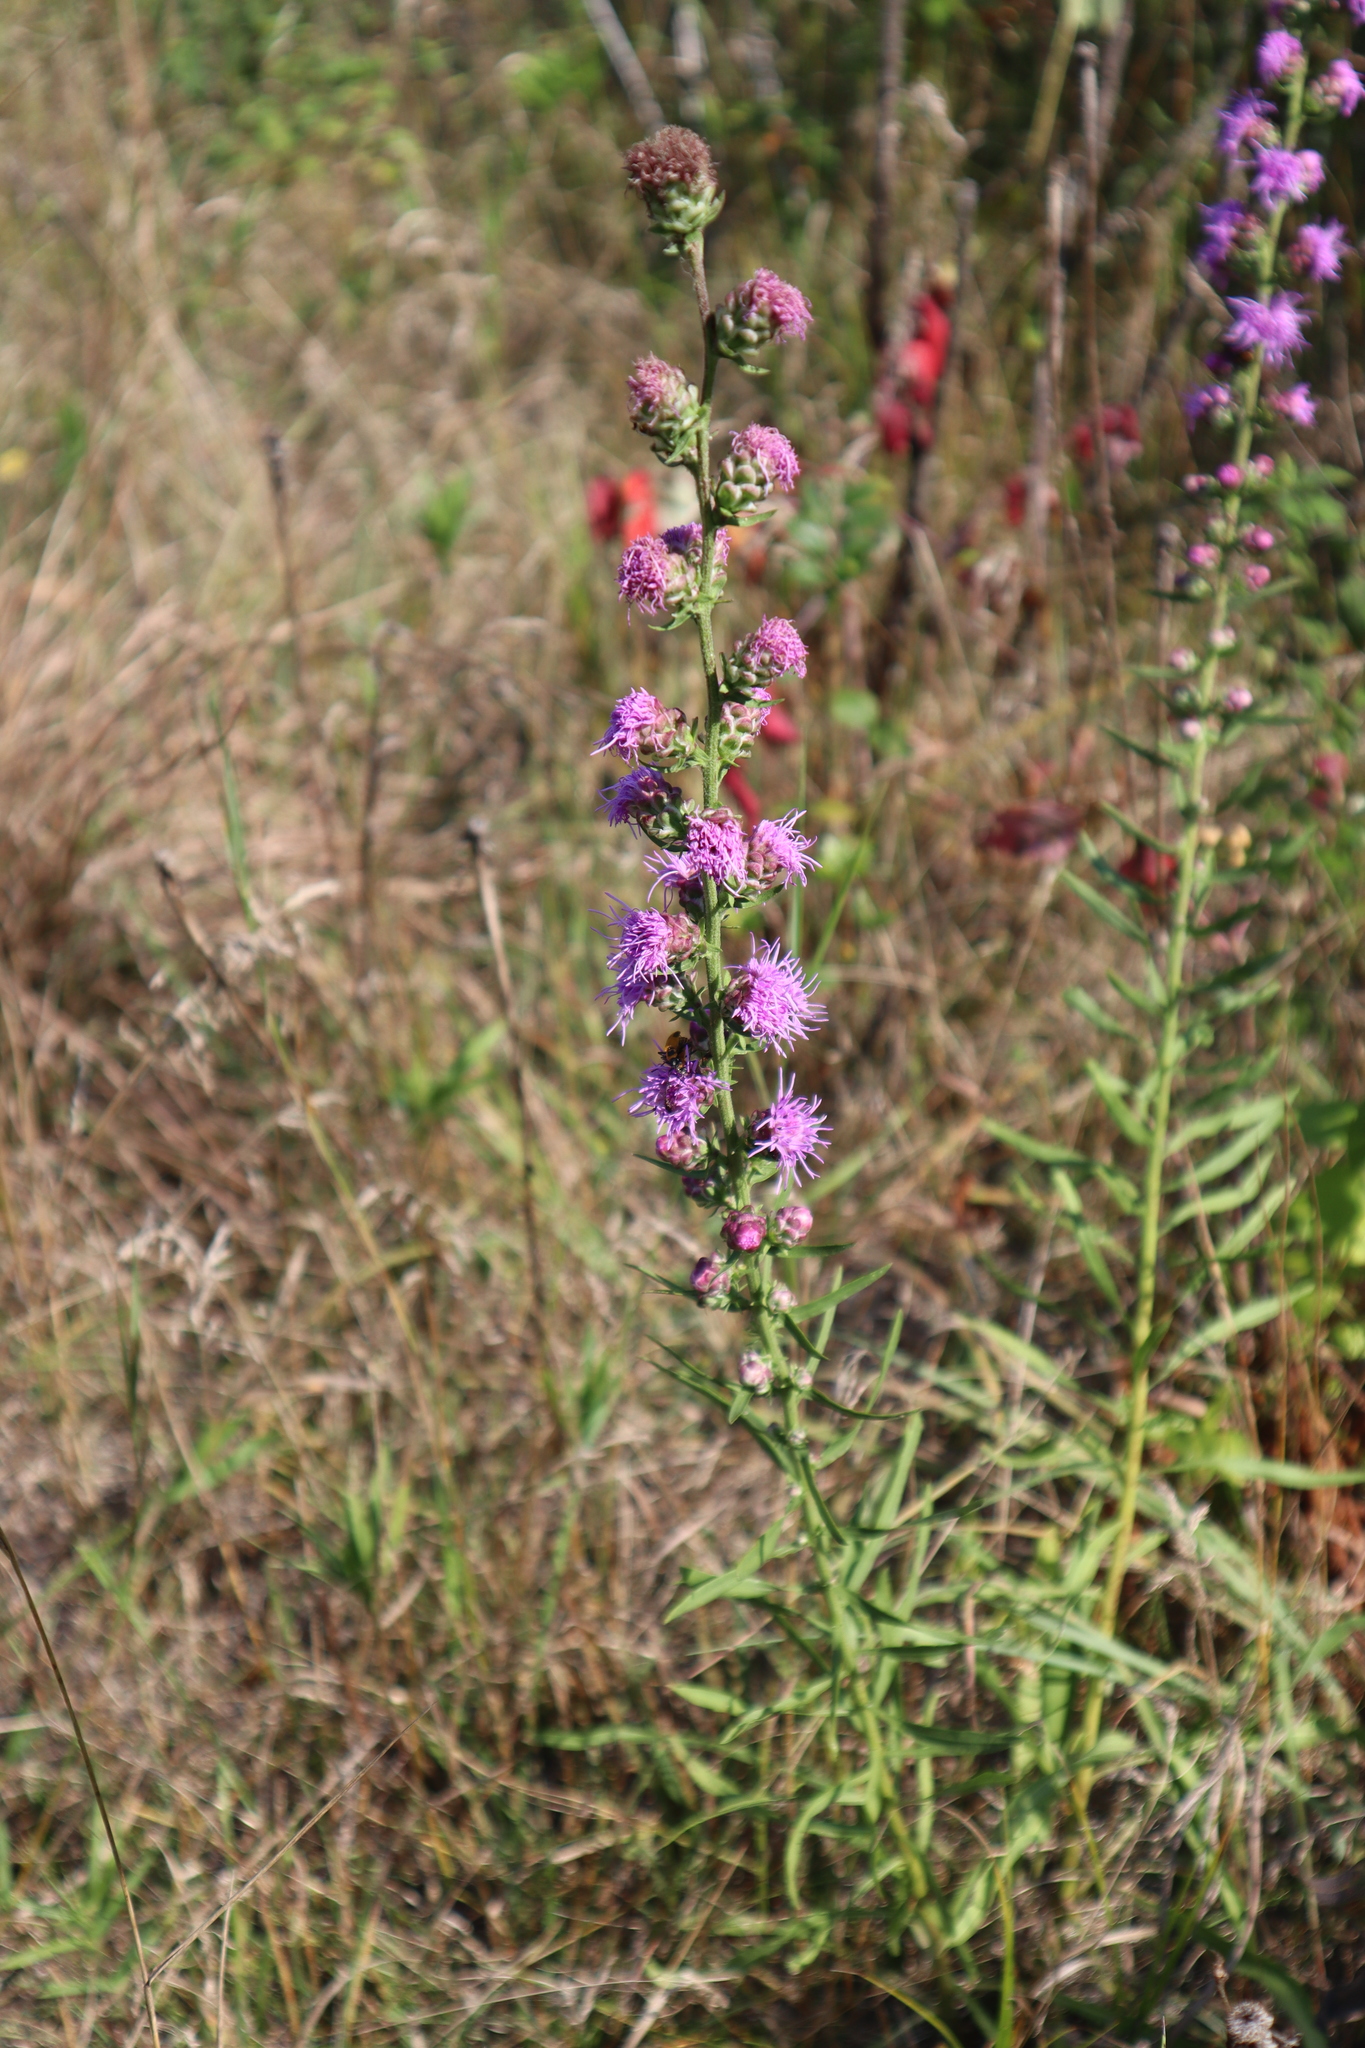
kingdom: Plantae
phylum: Tracheophyta
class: Magnoliopsida
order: Asterales
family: Asteraceae
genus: Liatris
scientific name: Liatris aspera
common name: Lacerate blazing-star
